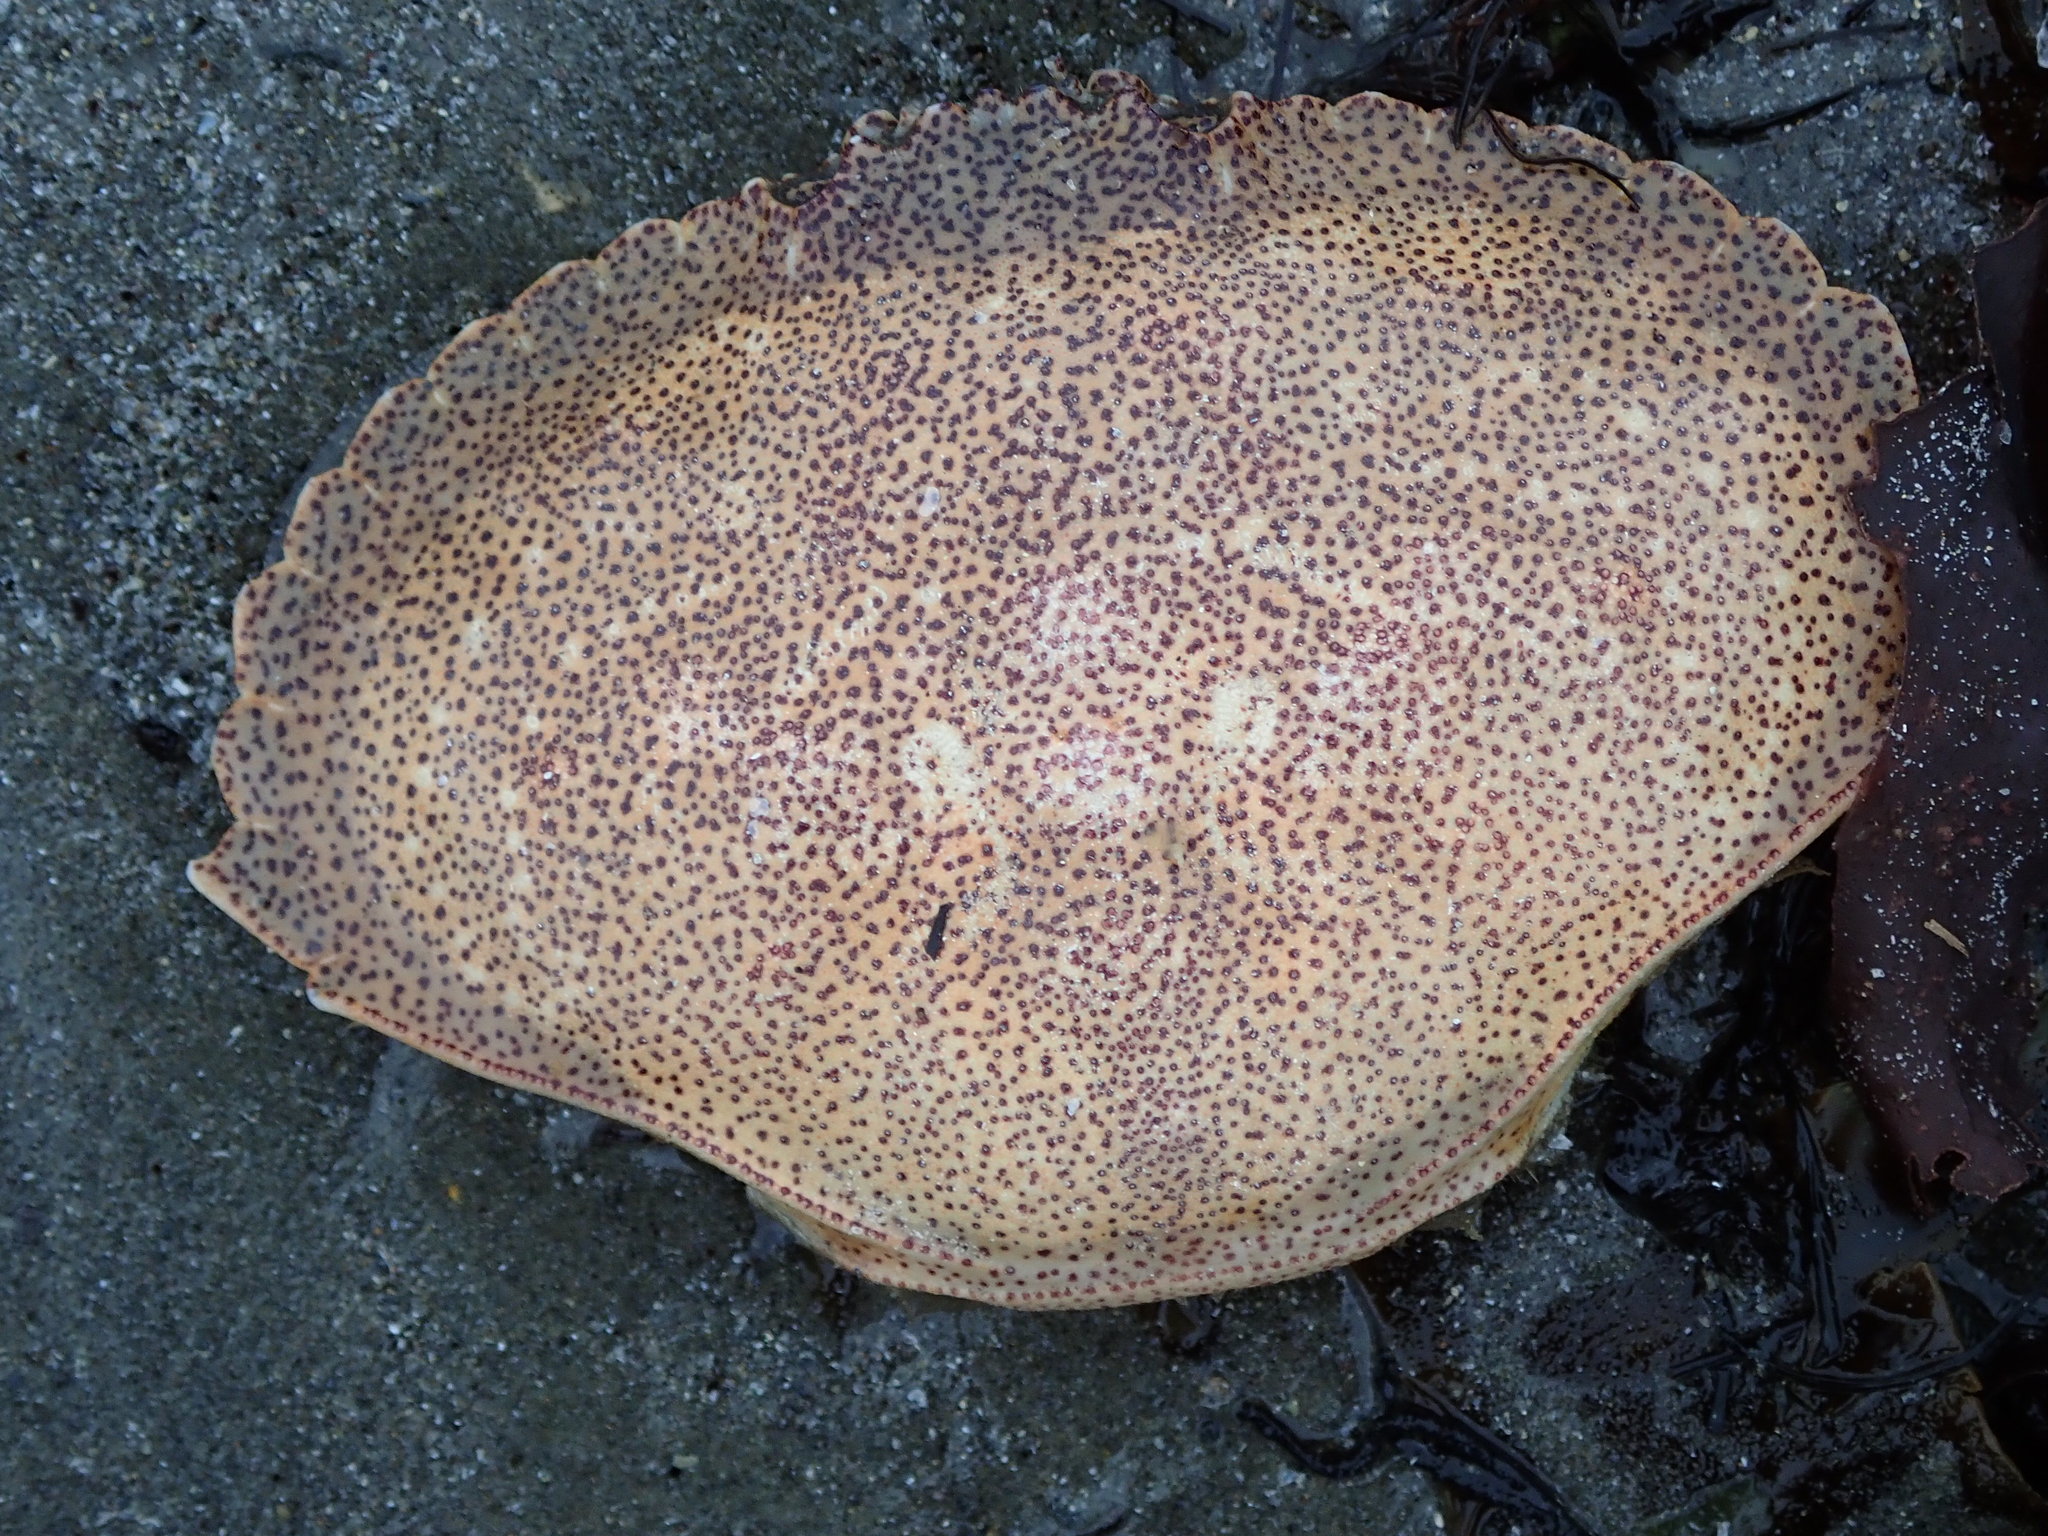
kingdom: Animalia
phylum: Arthropoda
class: Malacostraca
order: Decapoda
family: Cancridae
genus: Cancer
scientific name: Cancer irroratus
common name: Atlantic rock crab
